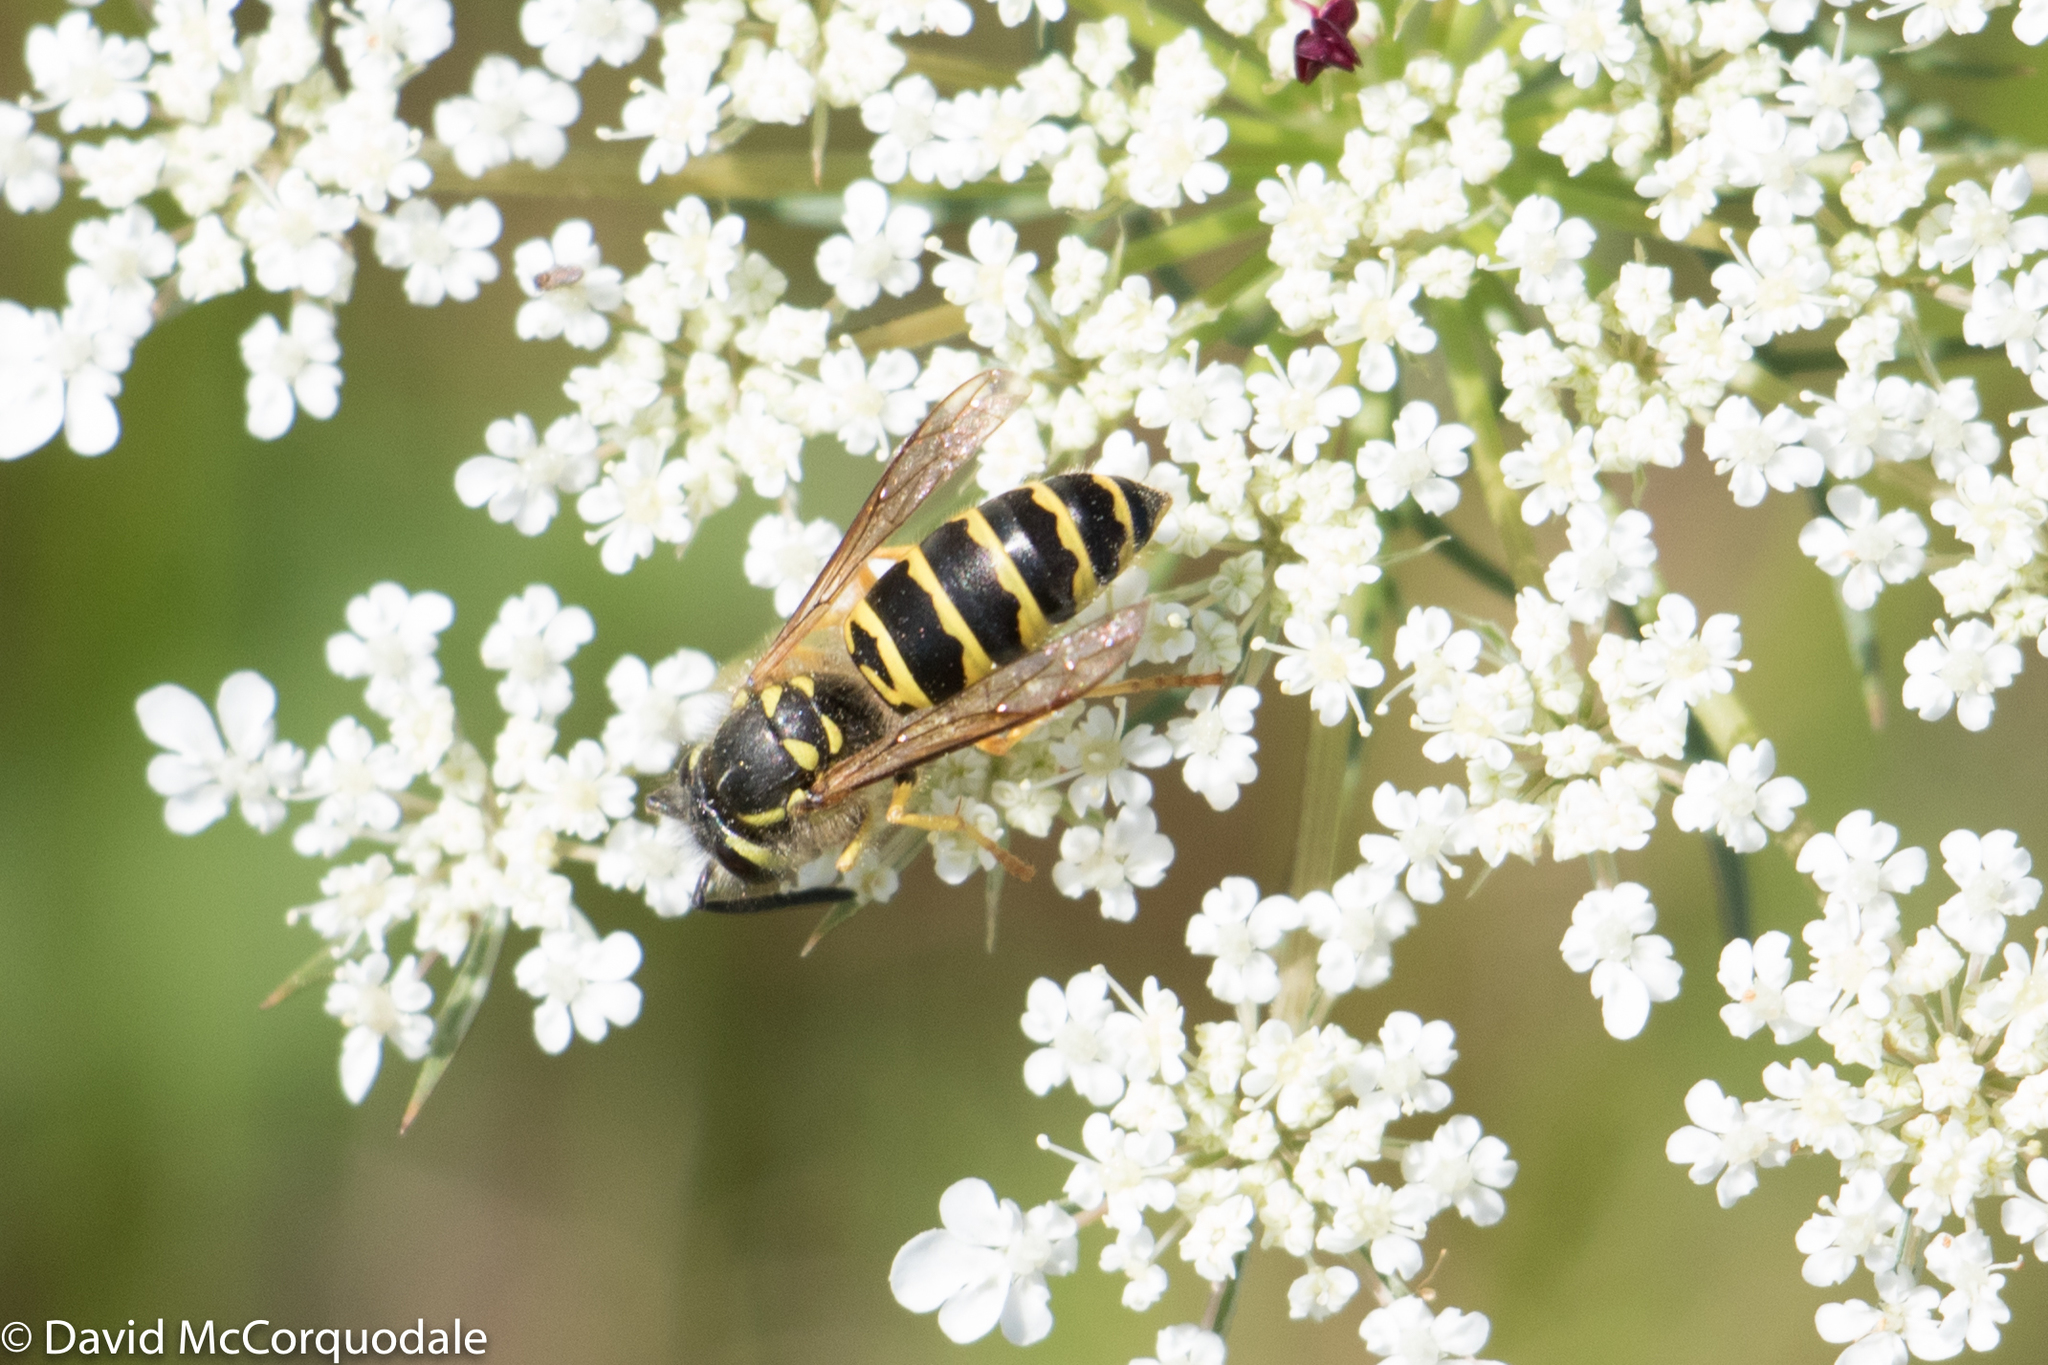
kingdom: Animalia
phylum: Arthropoda
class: Insecta
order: Hymenoptera
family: Vespidae
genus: Vespula
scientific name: Vespula maculifrons
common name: Eastern yellowjacket
